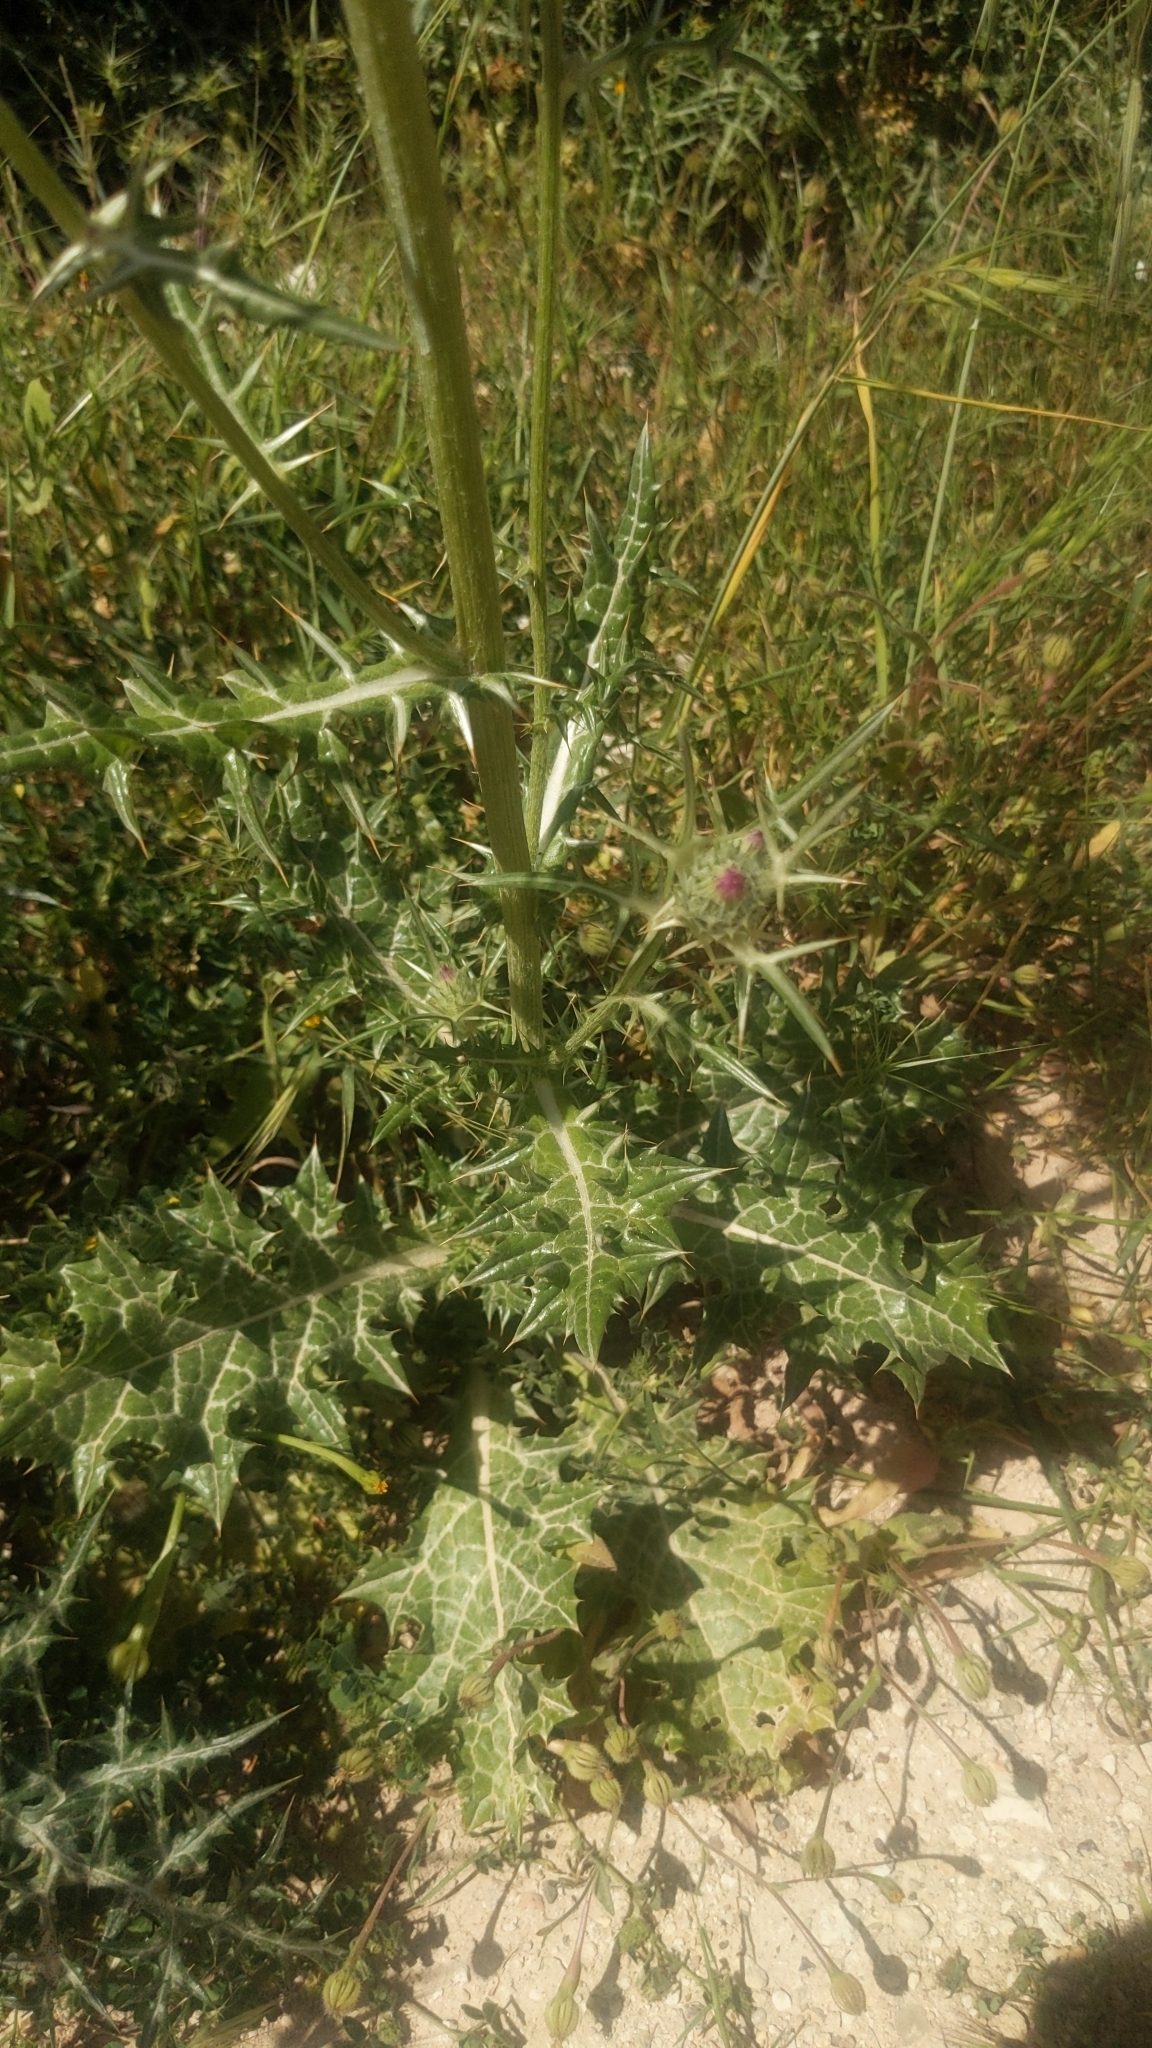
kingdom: Plantae
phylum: Tracheophyta
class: Magnoliopsida
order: Asterales
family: Asteraceae
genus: Notobasis
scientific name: Notobasis syriaca
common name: Syrian thistle
